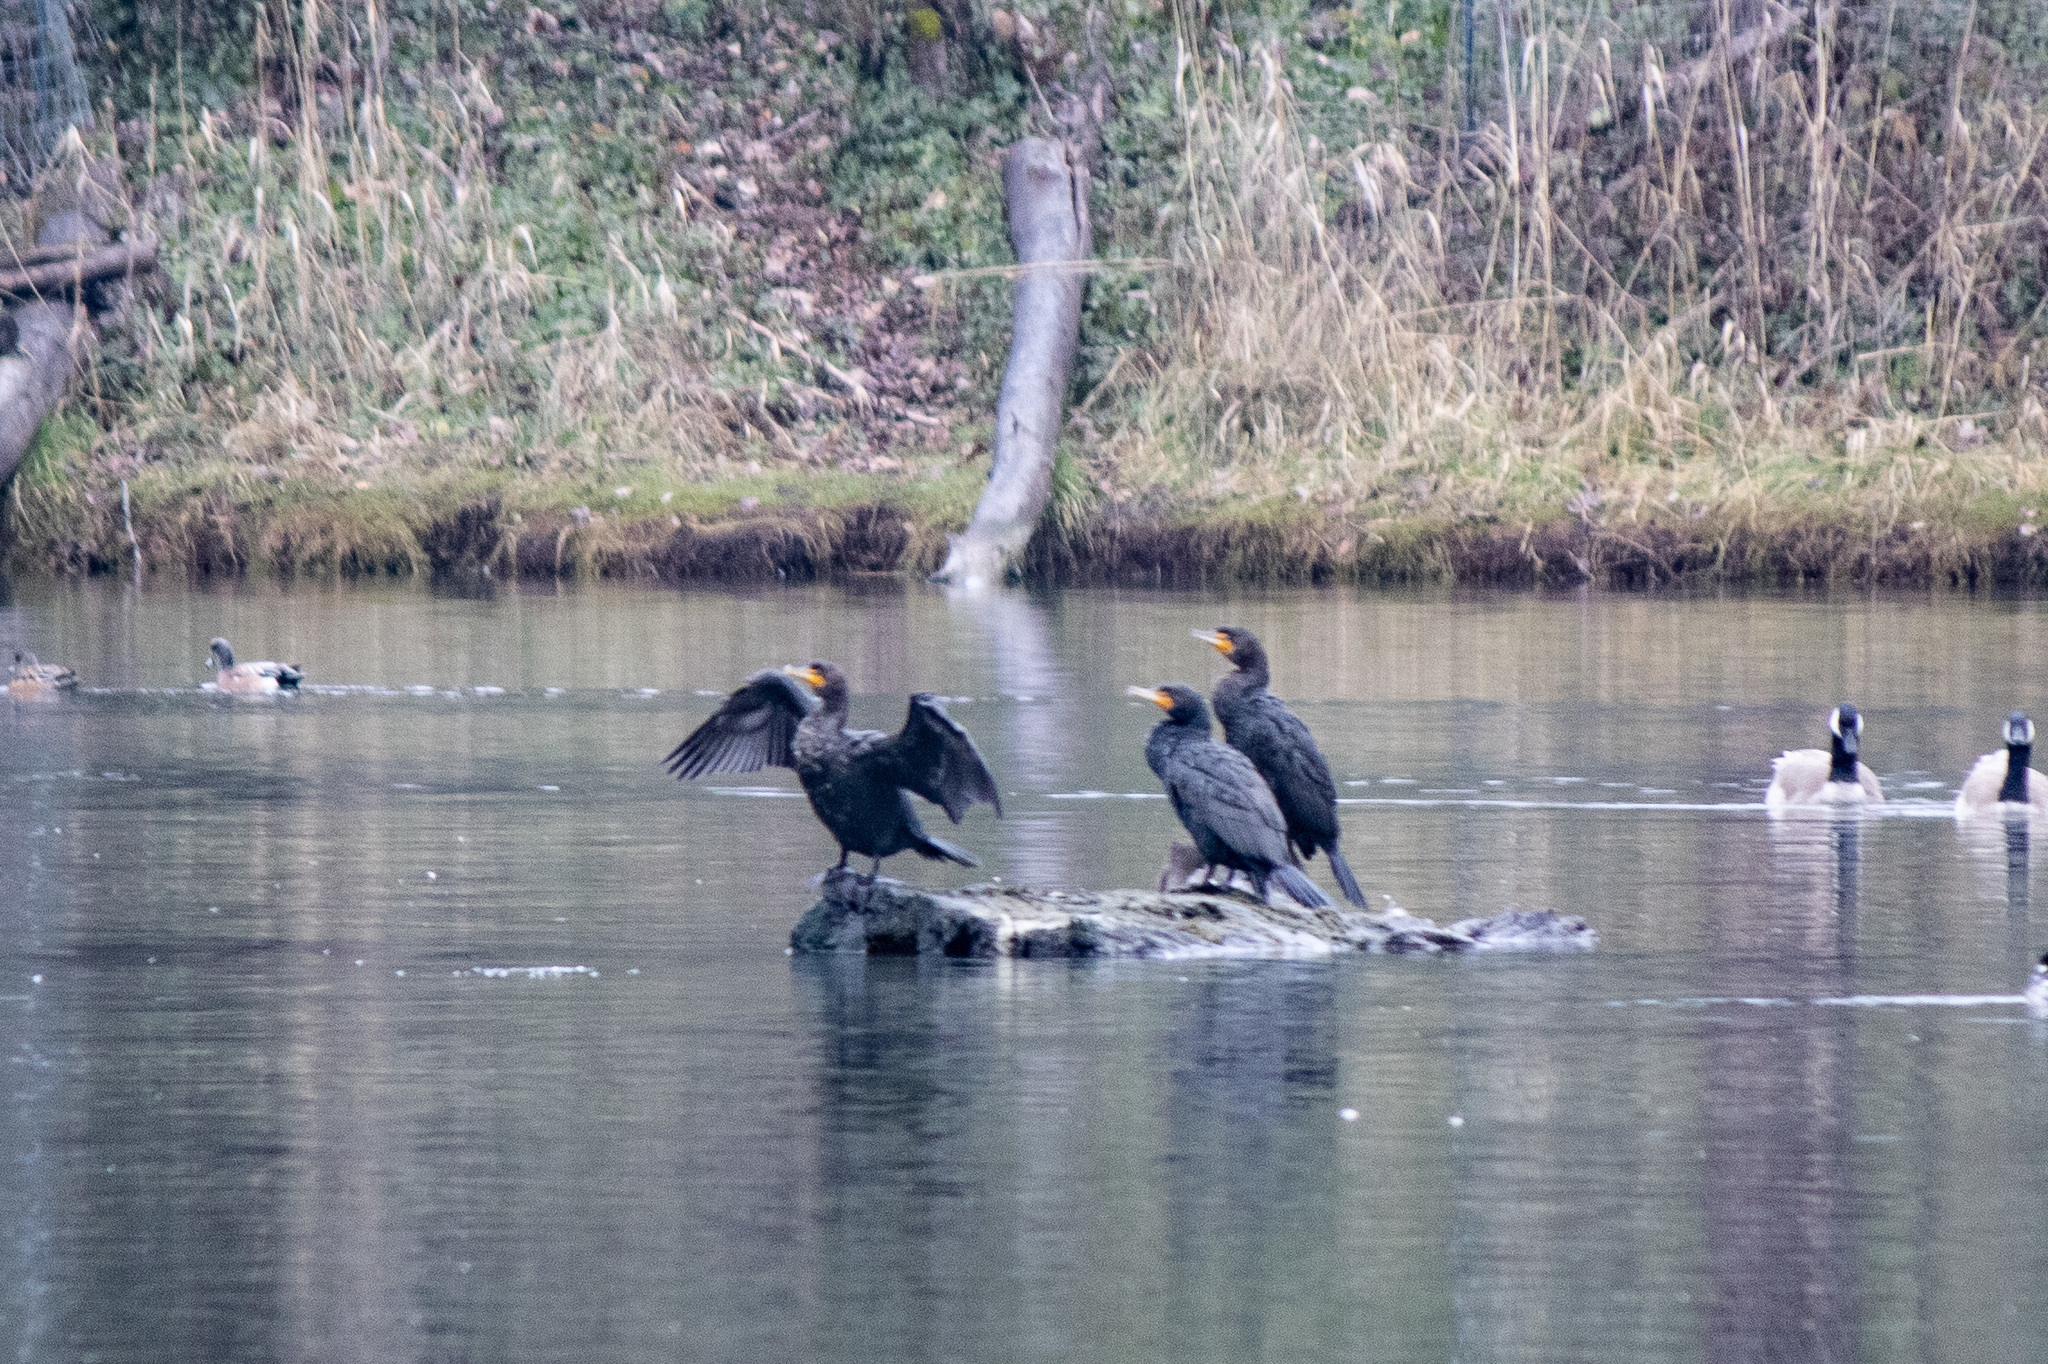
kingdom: Animalia
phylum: Chordata
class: Aves
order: Suliformes
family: Phalacrocoracidae
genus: Phalacrocorax
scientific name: Phalacrocorax auritus
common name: Double-crested cormorant
